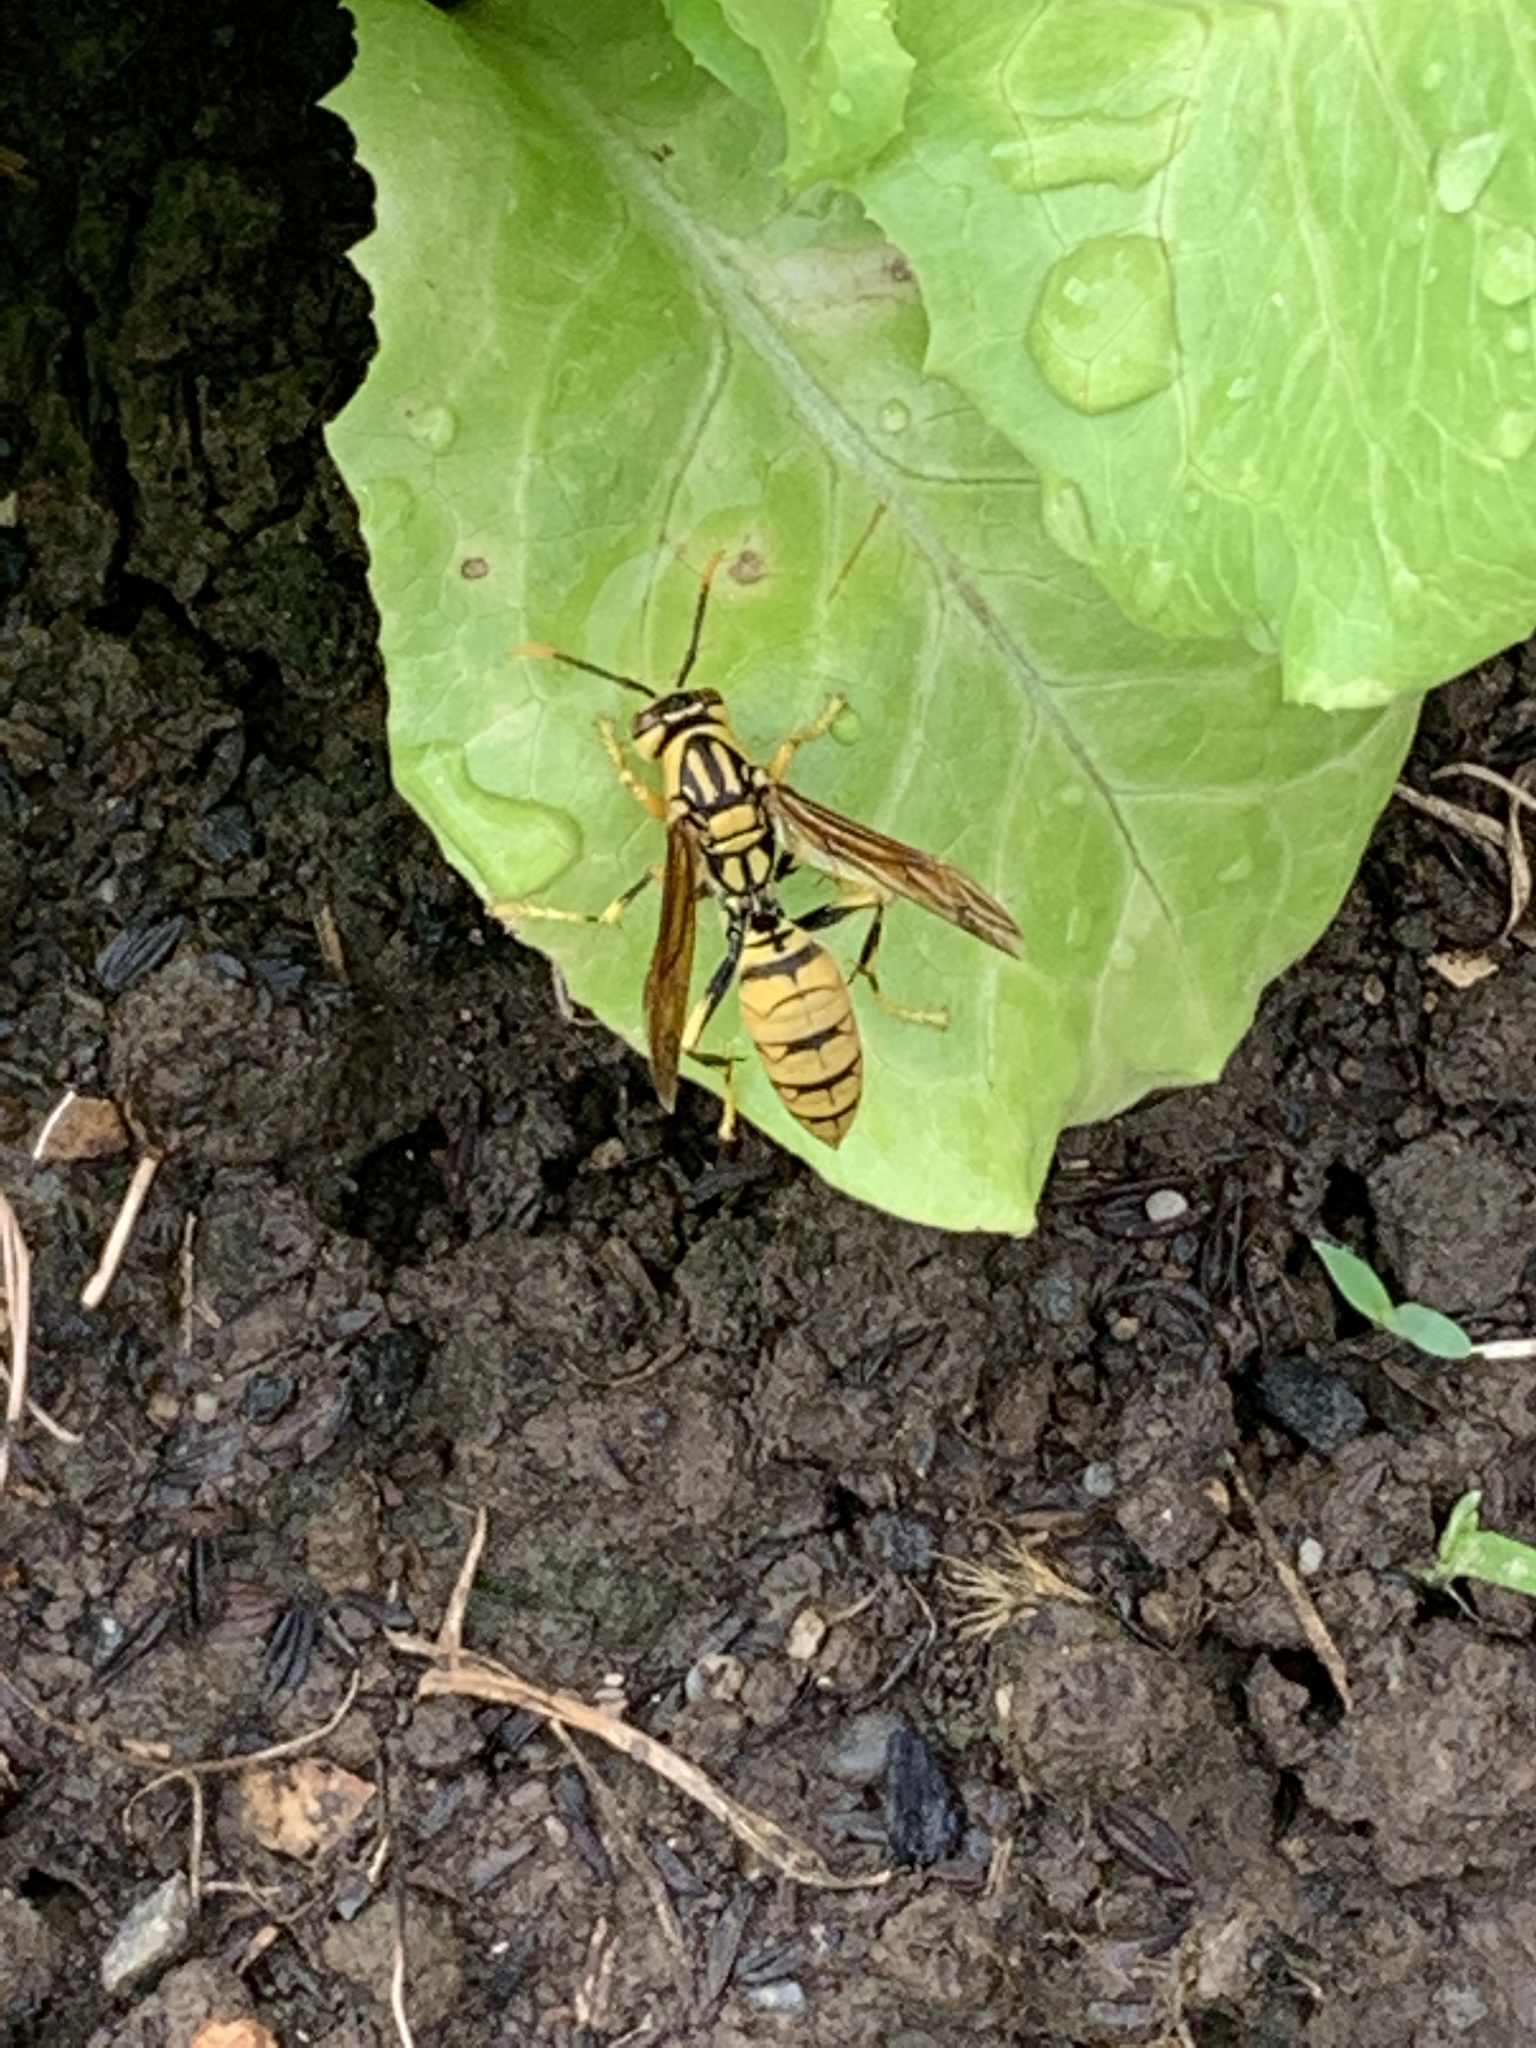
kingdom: Animalia
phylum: Arthropoda
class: Insecta
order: Hymenoptera
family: Eumenidae
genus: Polistes
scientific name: Polistes rothneyi
